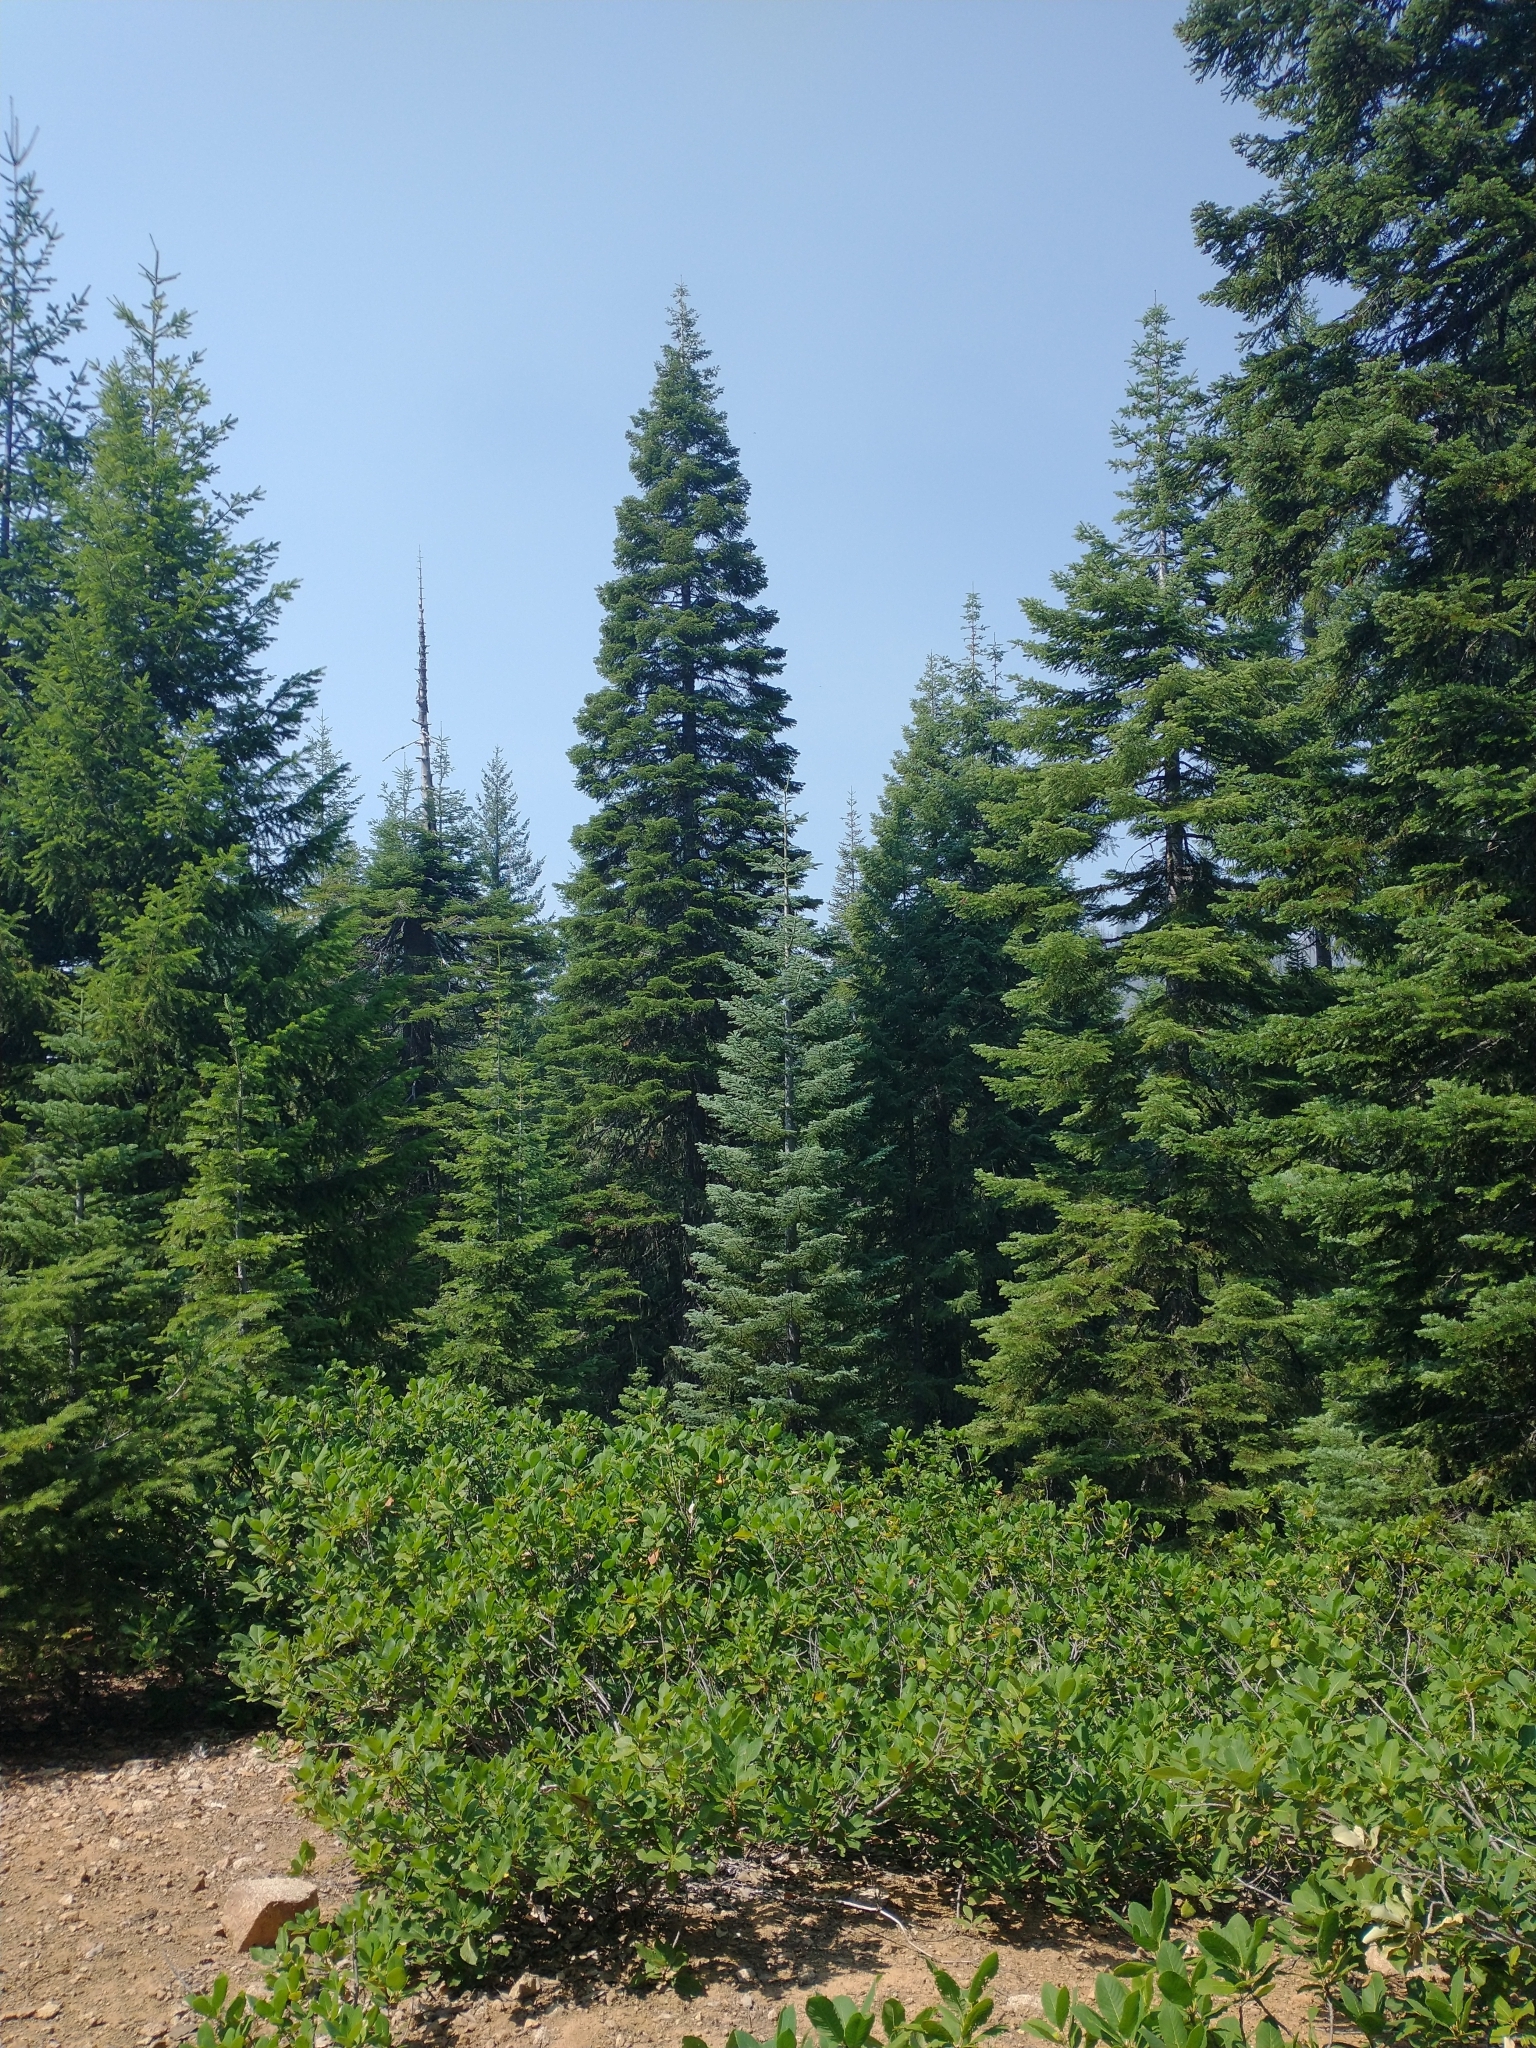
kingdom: Plantae
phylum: Tracheophyta
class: Pinopsida
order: Pinales
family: Pinaceae
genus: Abies
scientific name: Abies magnifica bis
